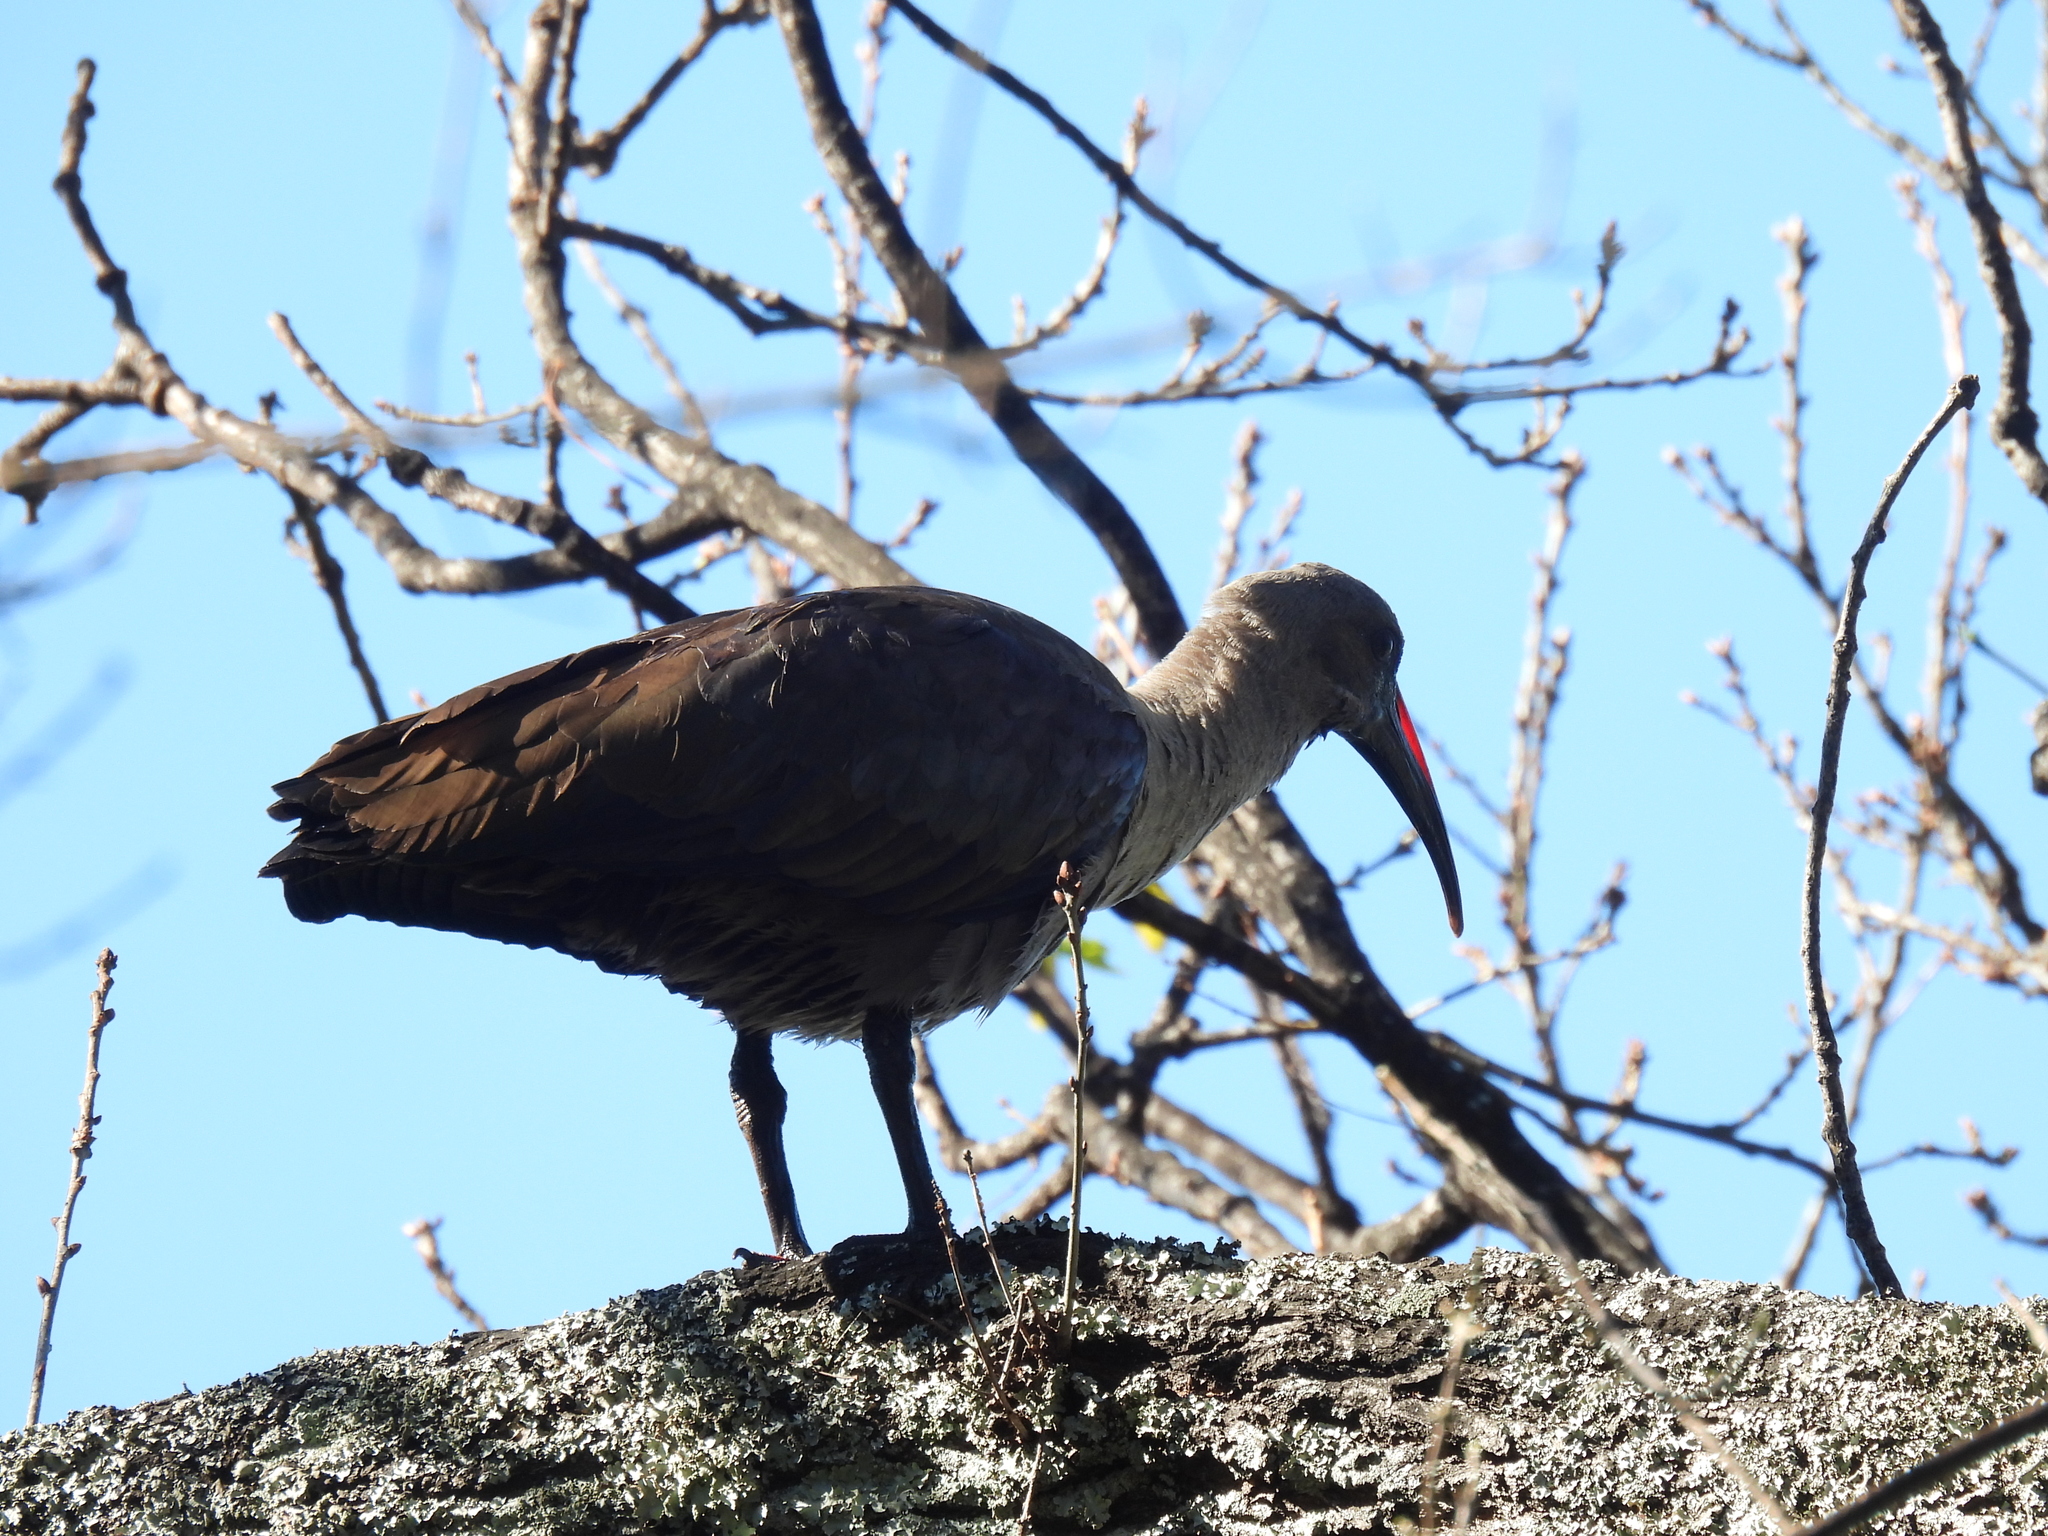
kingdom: Animalia
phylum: Chordata
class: Aves
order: Pelecaniformes
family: Threskiornithidae
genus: Bostrychia
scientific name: Bostrychia hagedash
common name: Hadada ibis
